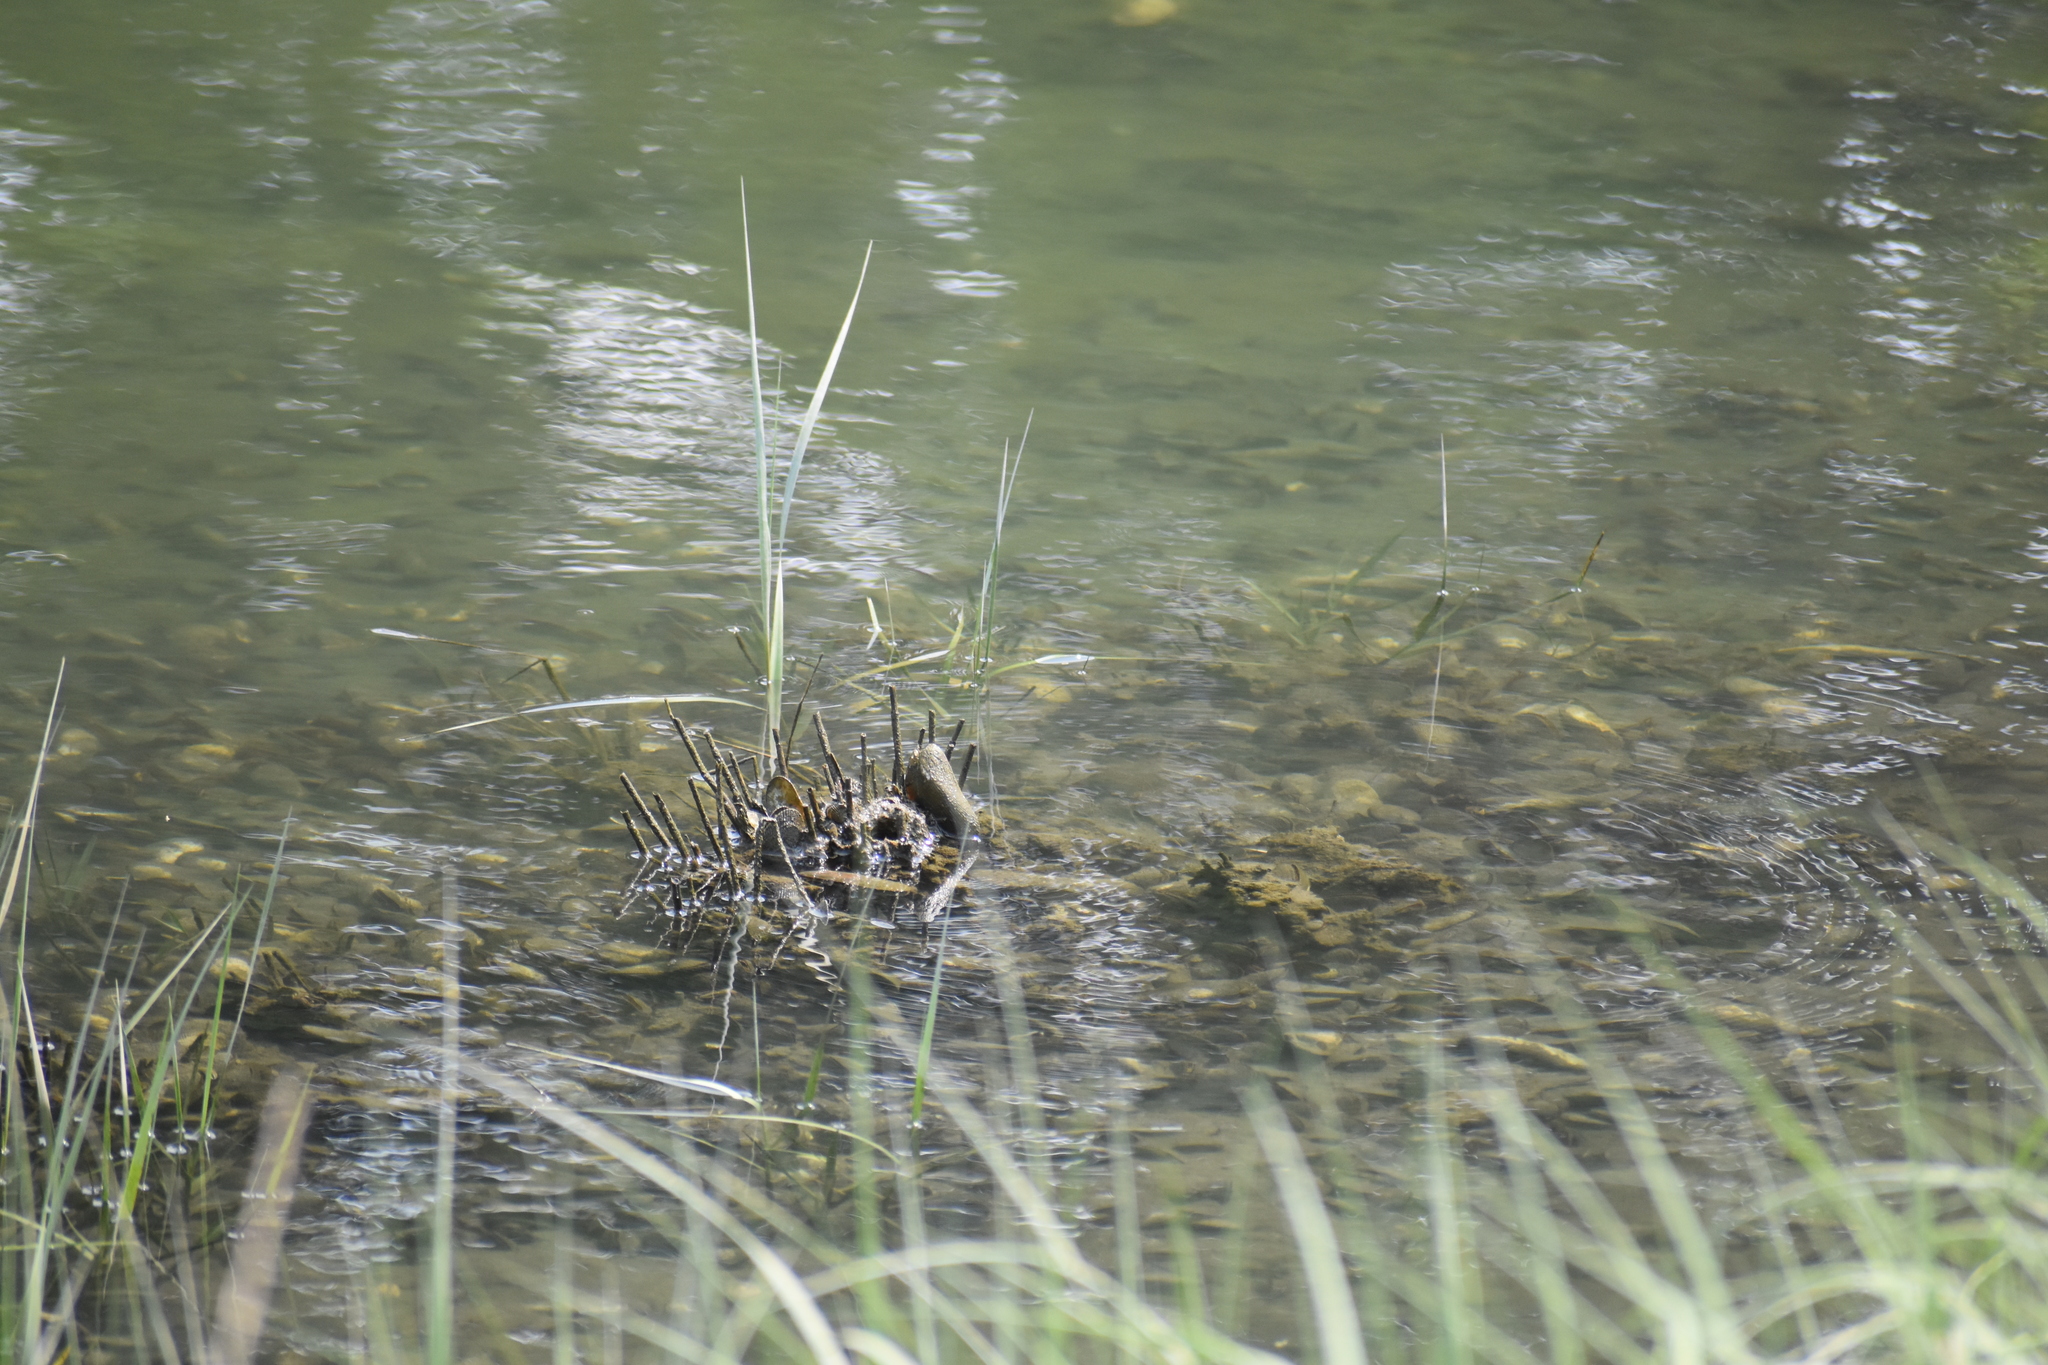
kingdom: Animalia
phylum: Mollusca
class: Bivalvia
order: Mytilida
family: Mytilidae
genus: Geukensia
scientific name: Geukensia demissa
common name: Ribbed mussel
